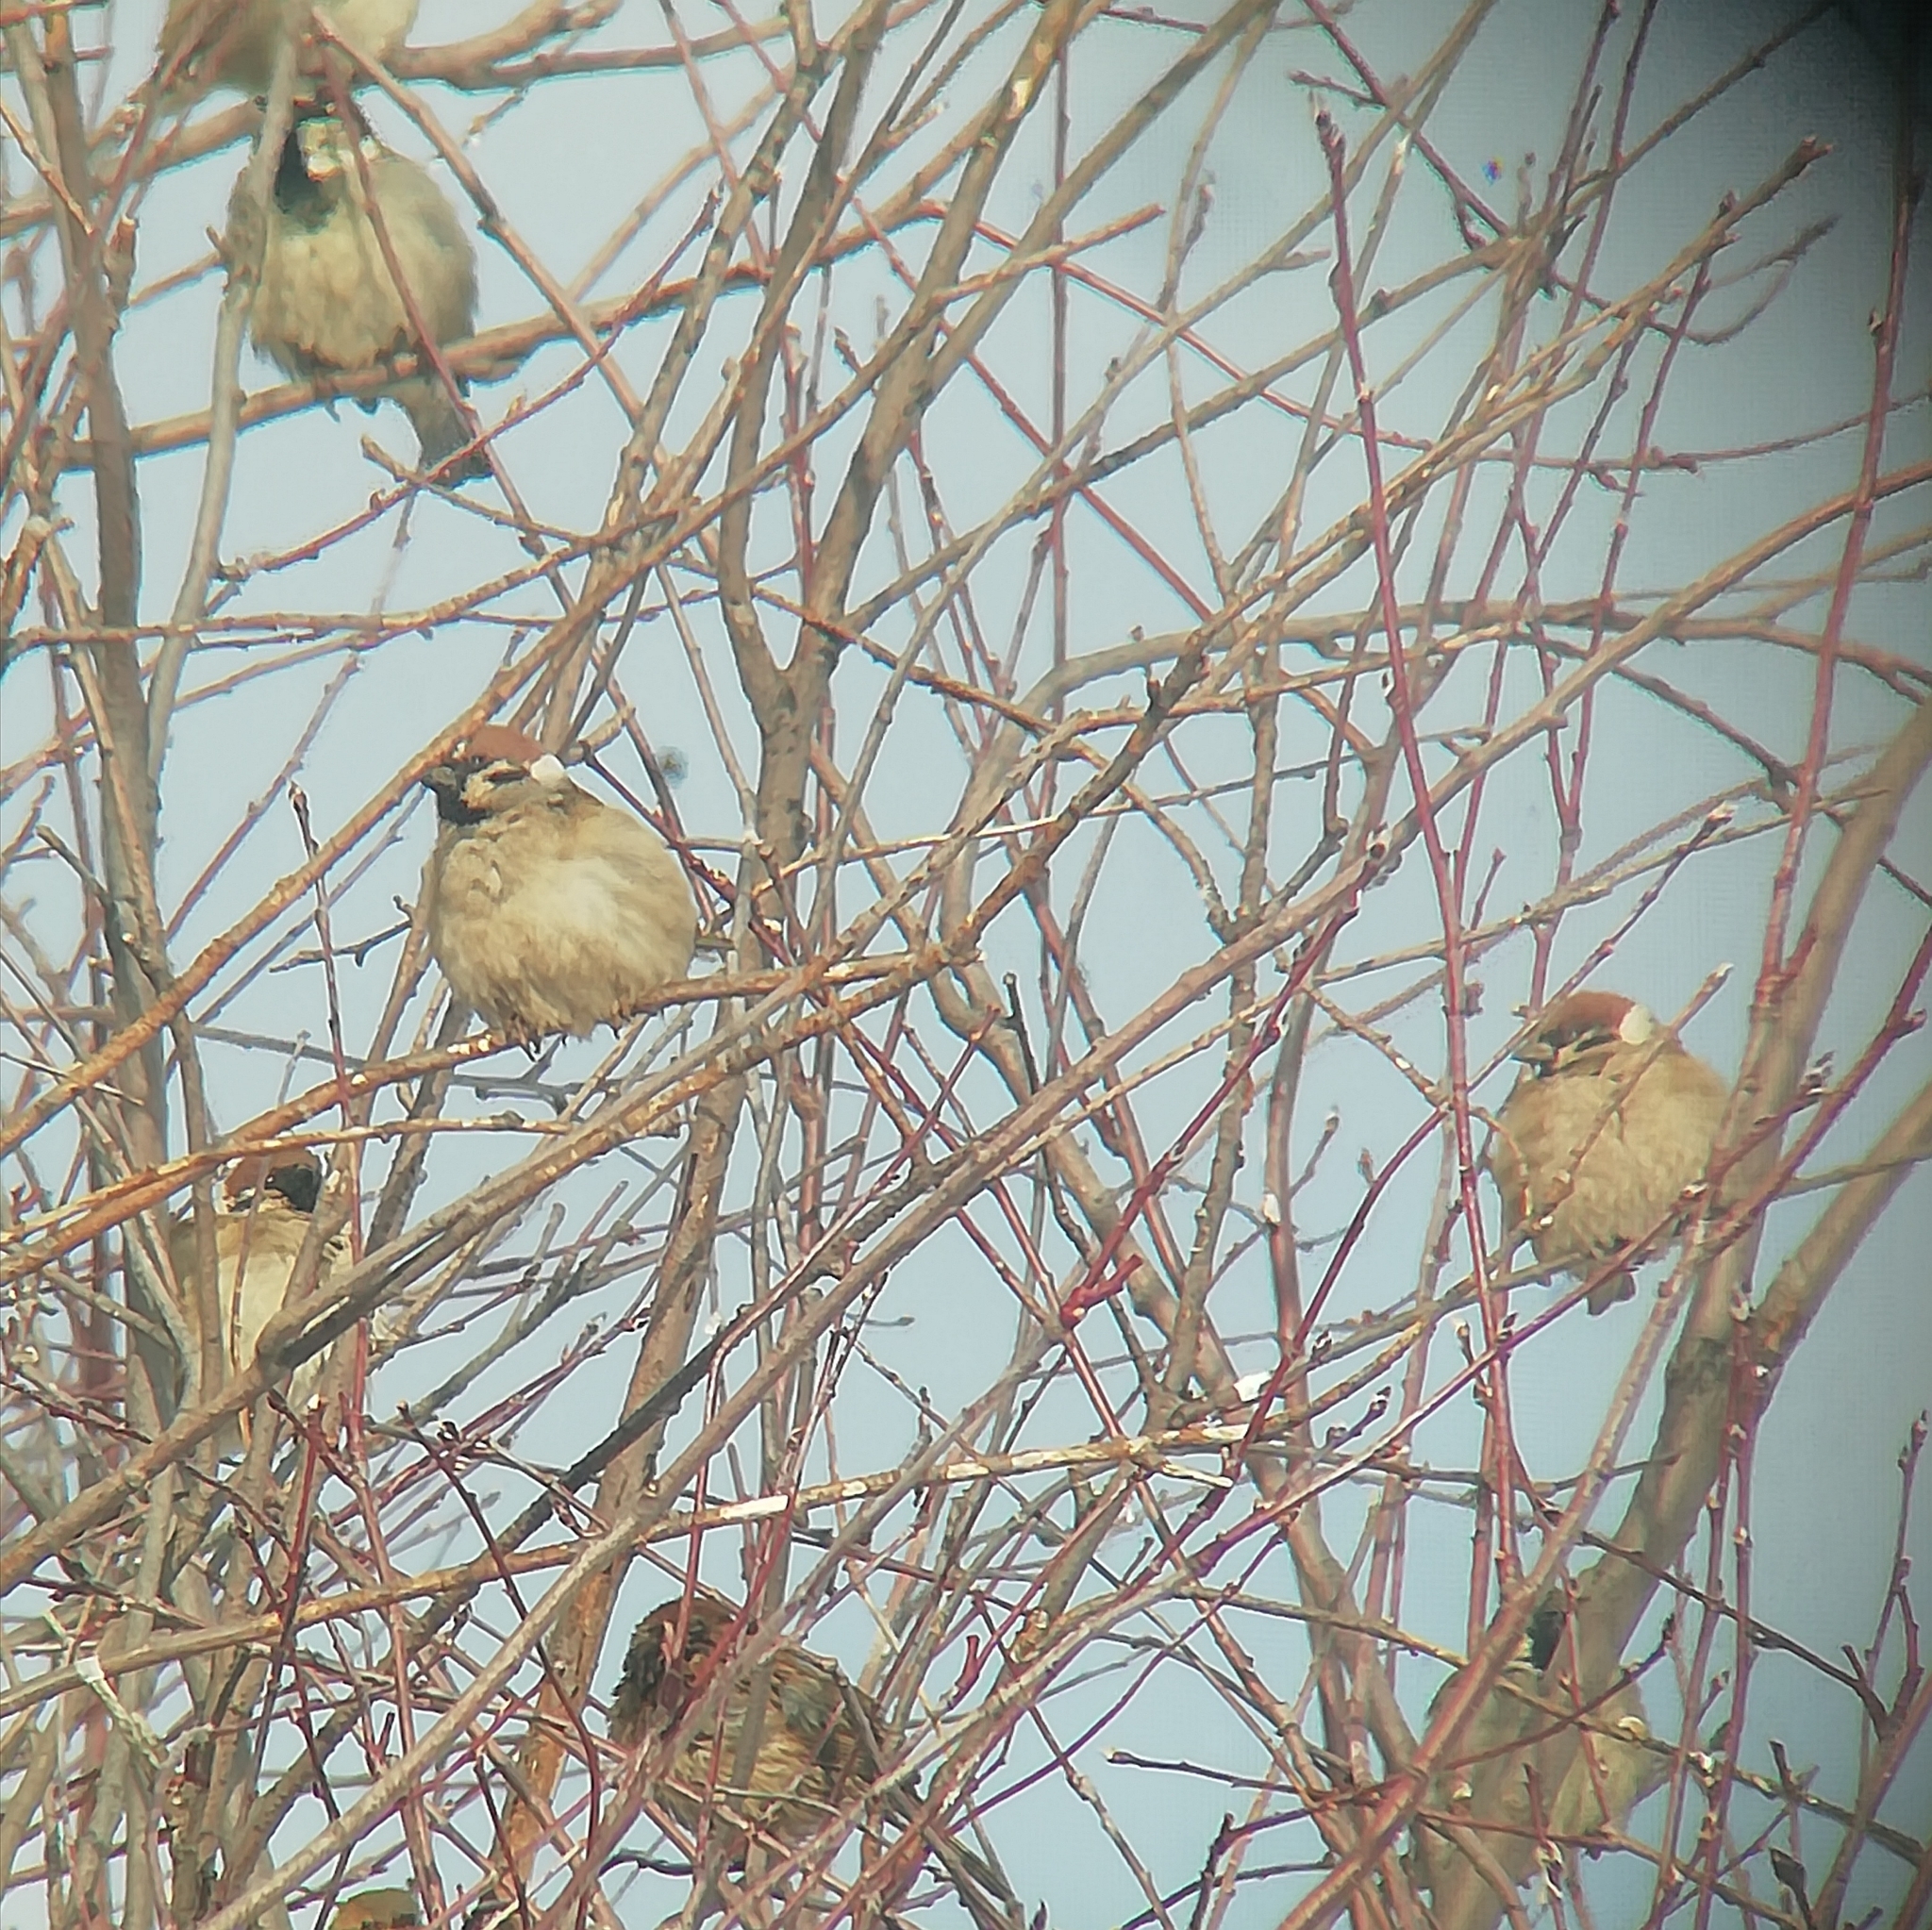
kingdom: Animalia
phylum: Chordata
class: Aves
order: Passeriformes
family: Passeridae
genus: Passer
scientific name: Passer montanus
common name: Eurasian tree sparrow
